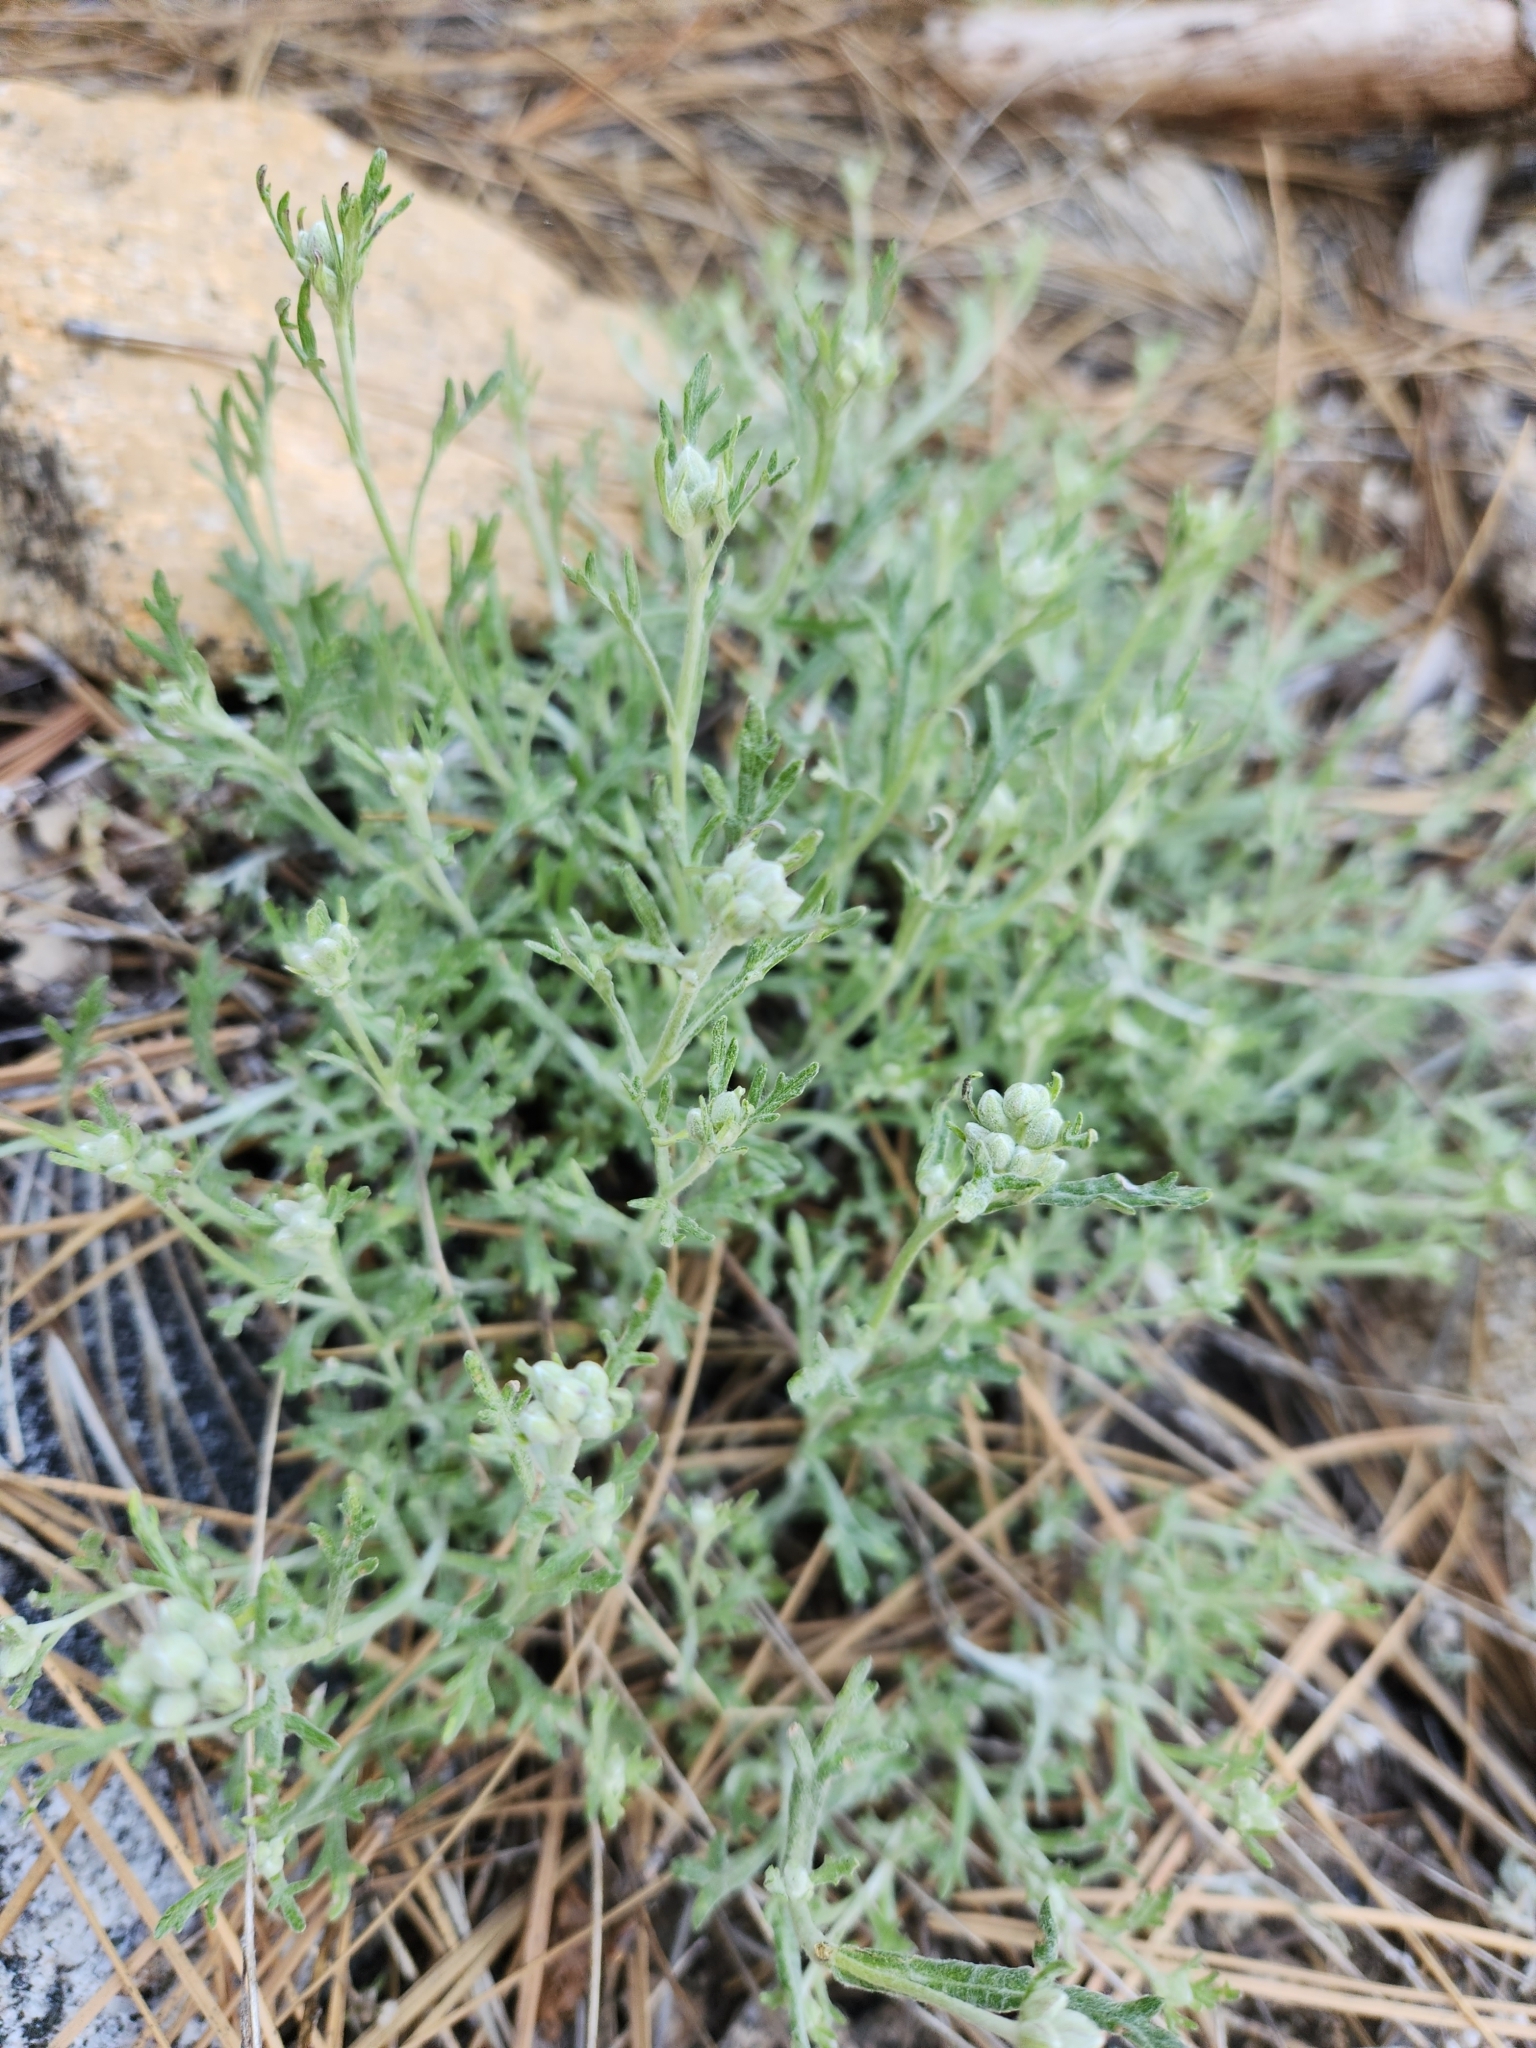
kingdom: Plantae
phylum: Tracheophyta
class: Magnoliopsida
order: Asterales
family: Asteraceae
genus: Eriophyllum
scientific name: Eriophyllum confertiflorum
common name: Golden-yarrow
